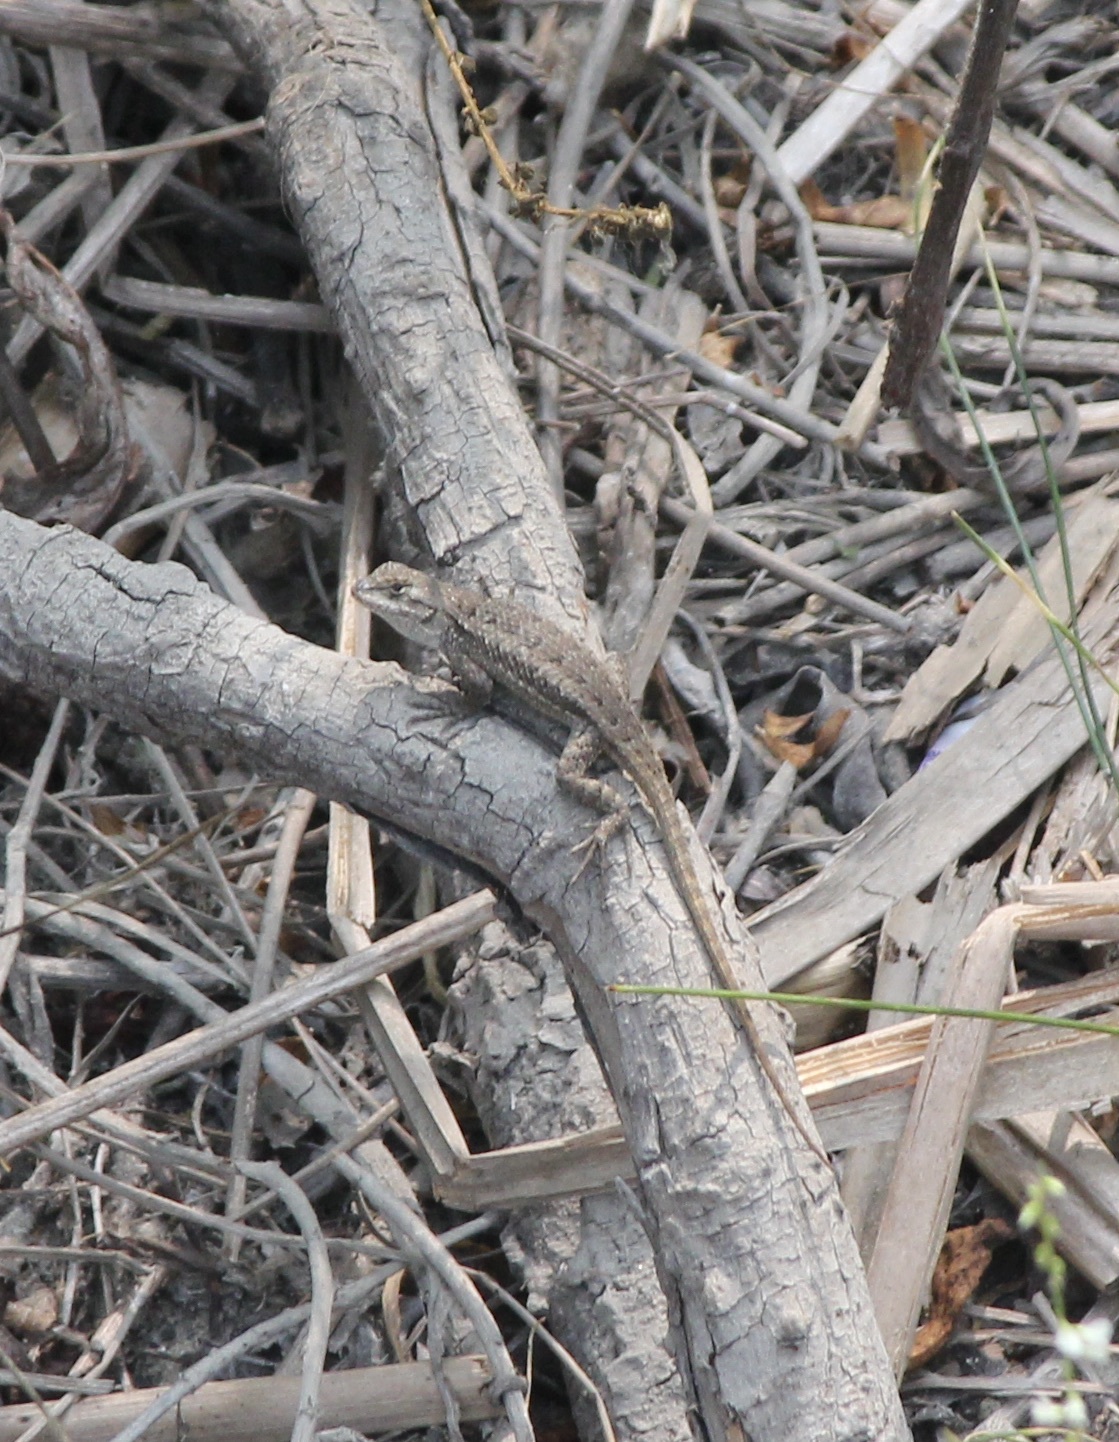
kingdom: Animalia
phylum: Chordata
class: Squamata
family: Phrynosomatidae
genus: Sceloporus
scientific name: Sceloporus occidentalis
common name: Western fence lizard
